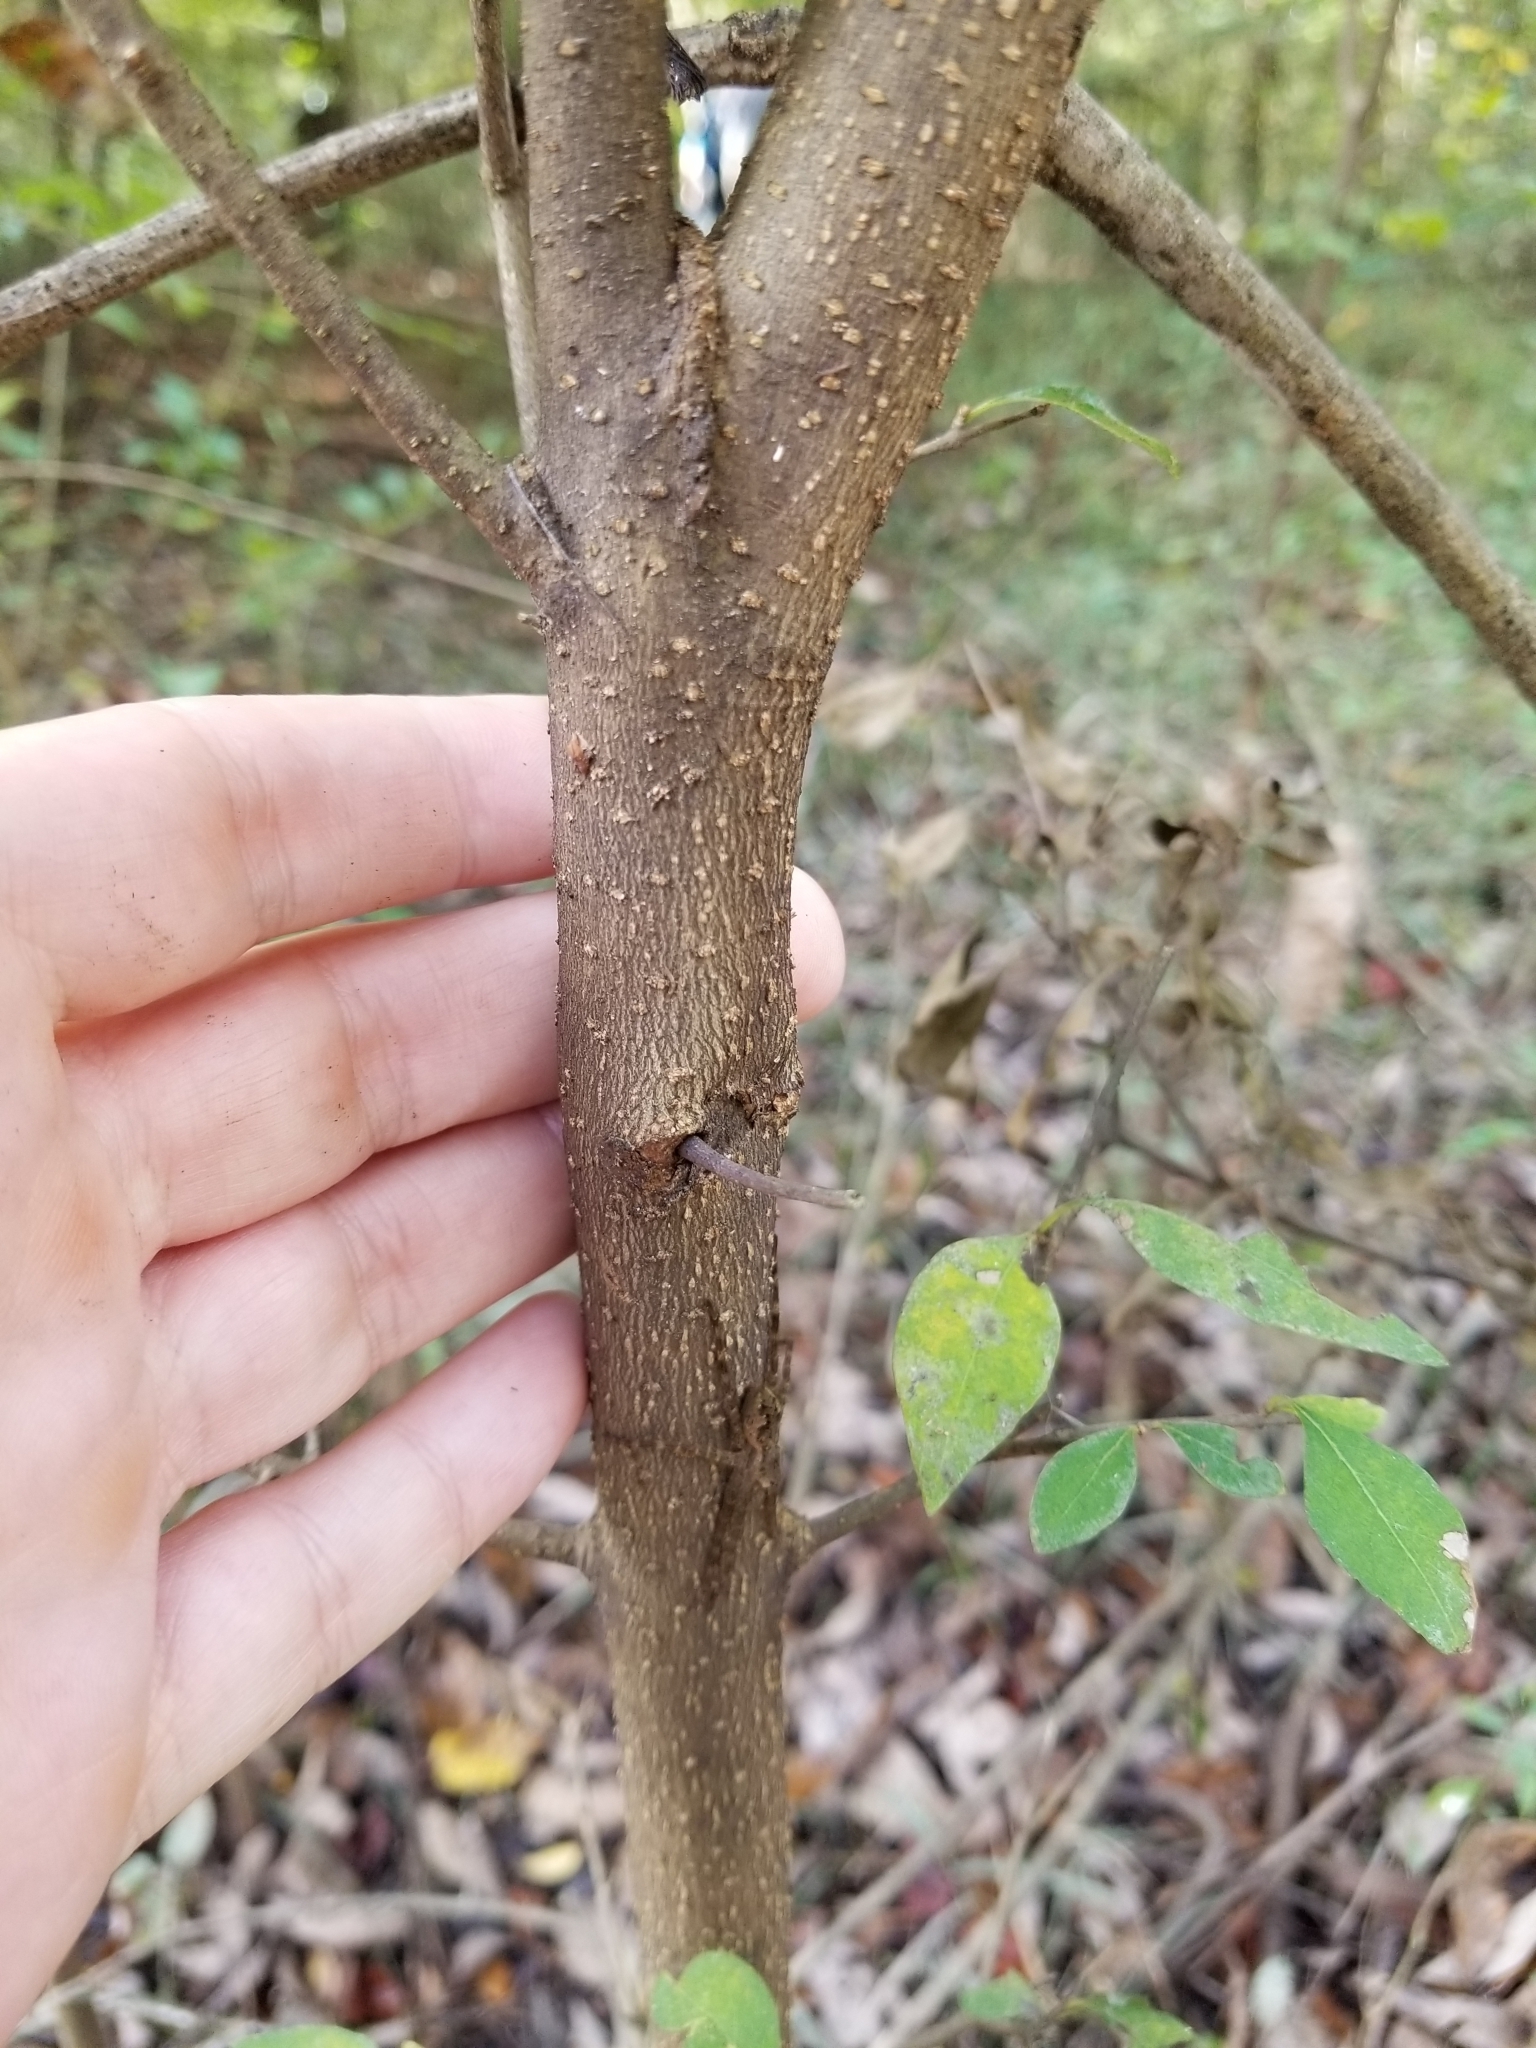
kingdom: Plantae
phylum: Tracheophyta
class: Magnoliopsida
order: Lamiales
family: Oleaceae
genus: Forestiera
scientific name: Forestiera acuminata
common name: Swamp-privet
